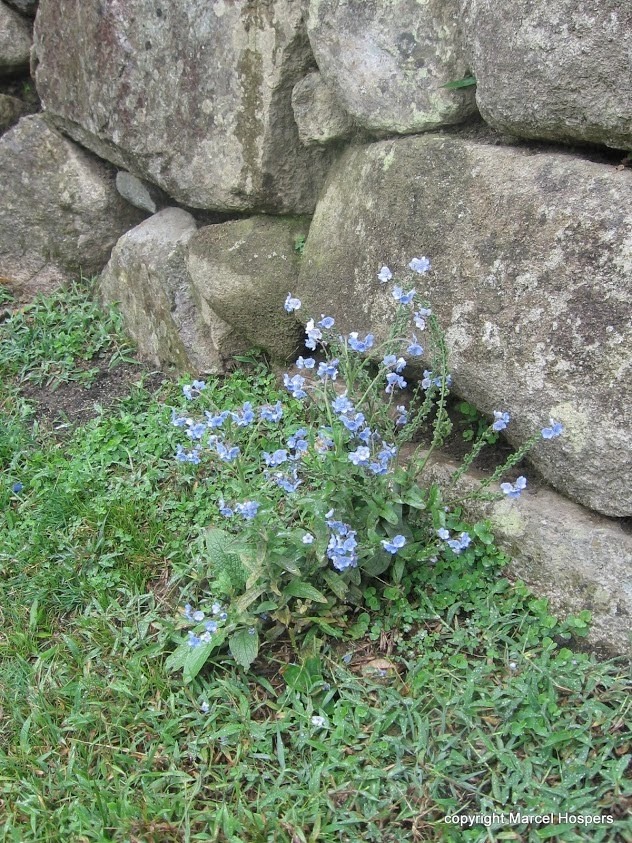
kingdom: Plantae
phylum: Tracheophyta
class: Magnoliopsida
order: Boraginales
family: Boraginaceae
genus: Cynoglossum
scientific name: Cynoglossum amabile
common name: Chinese hound's tongue
